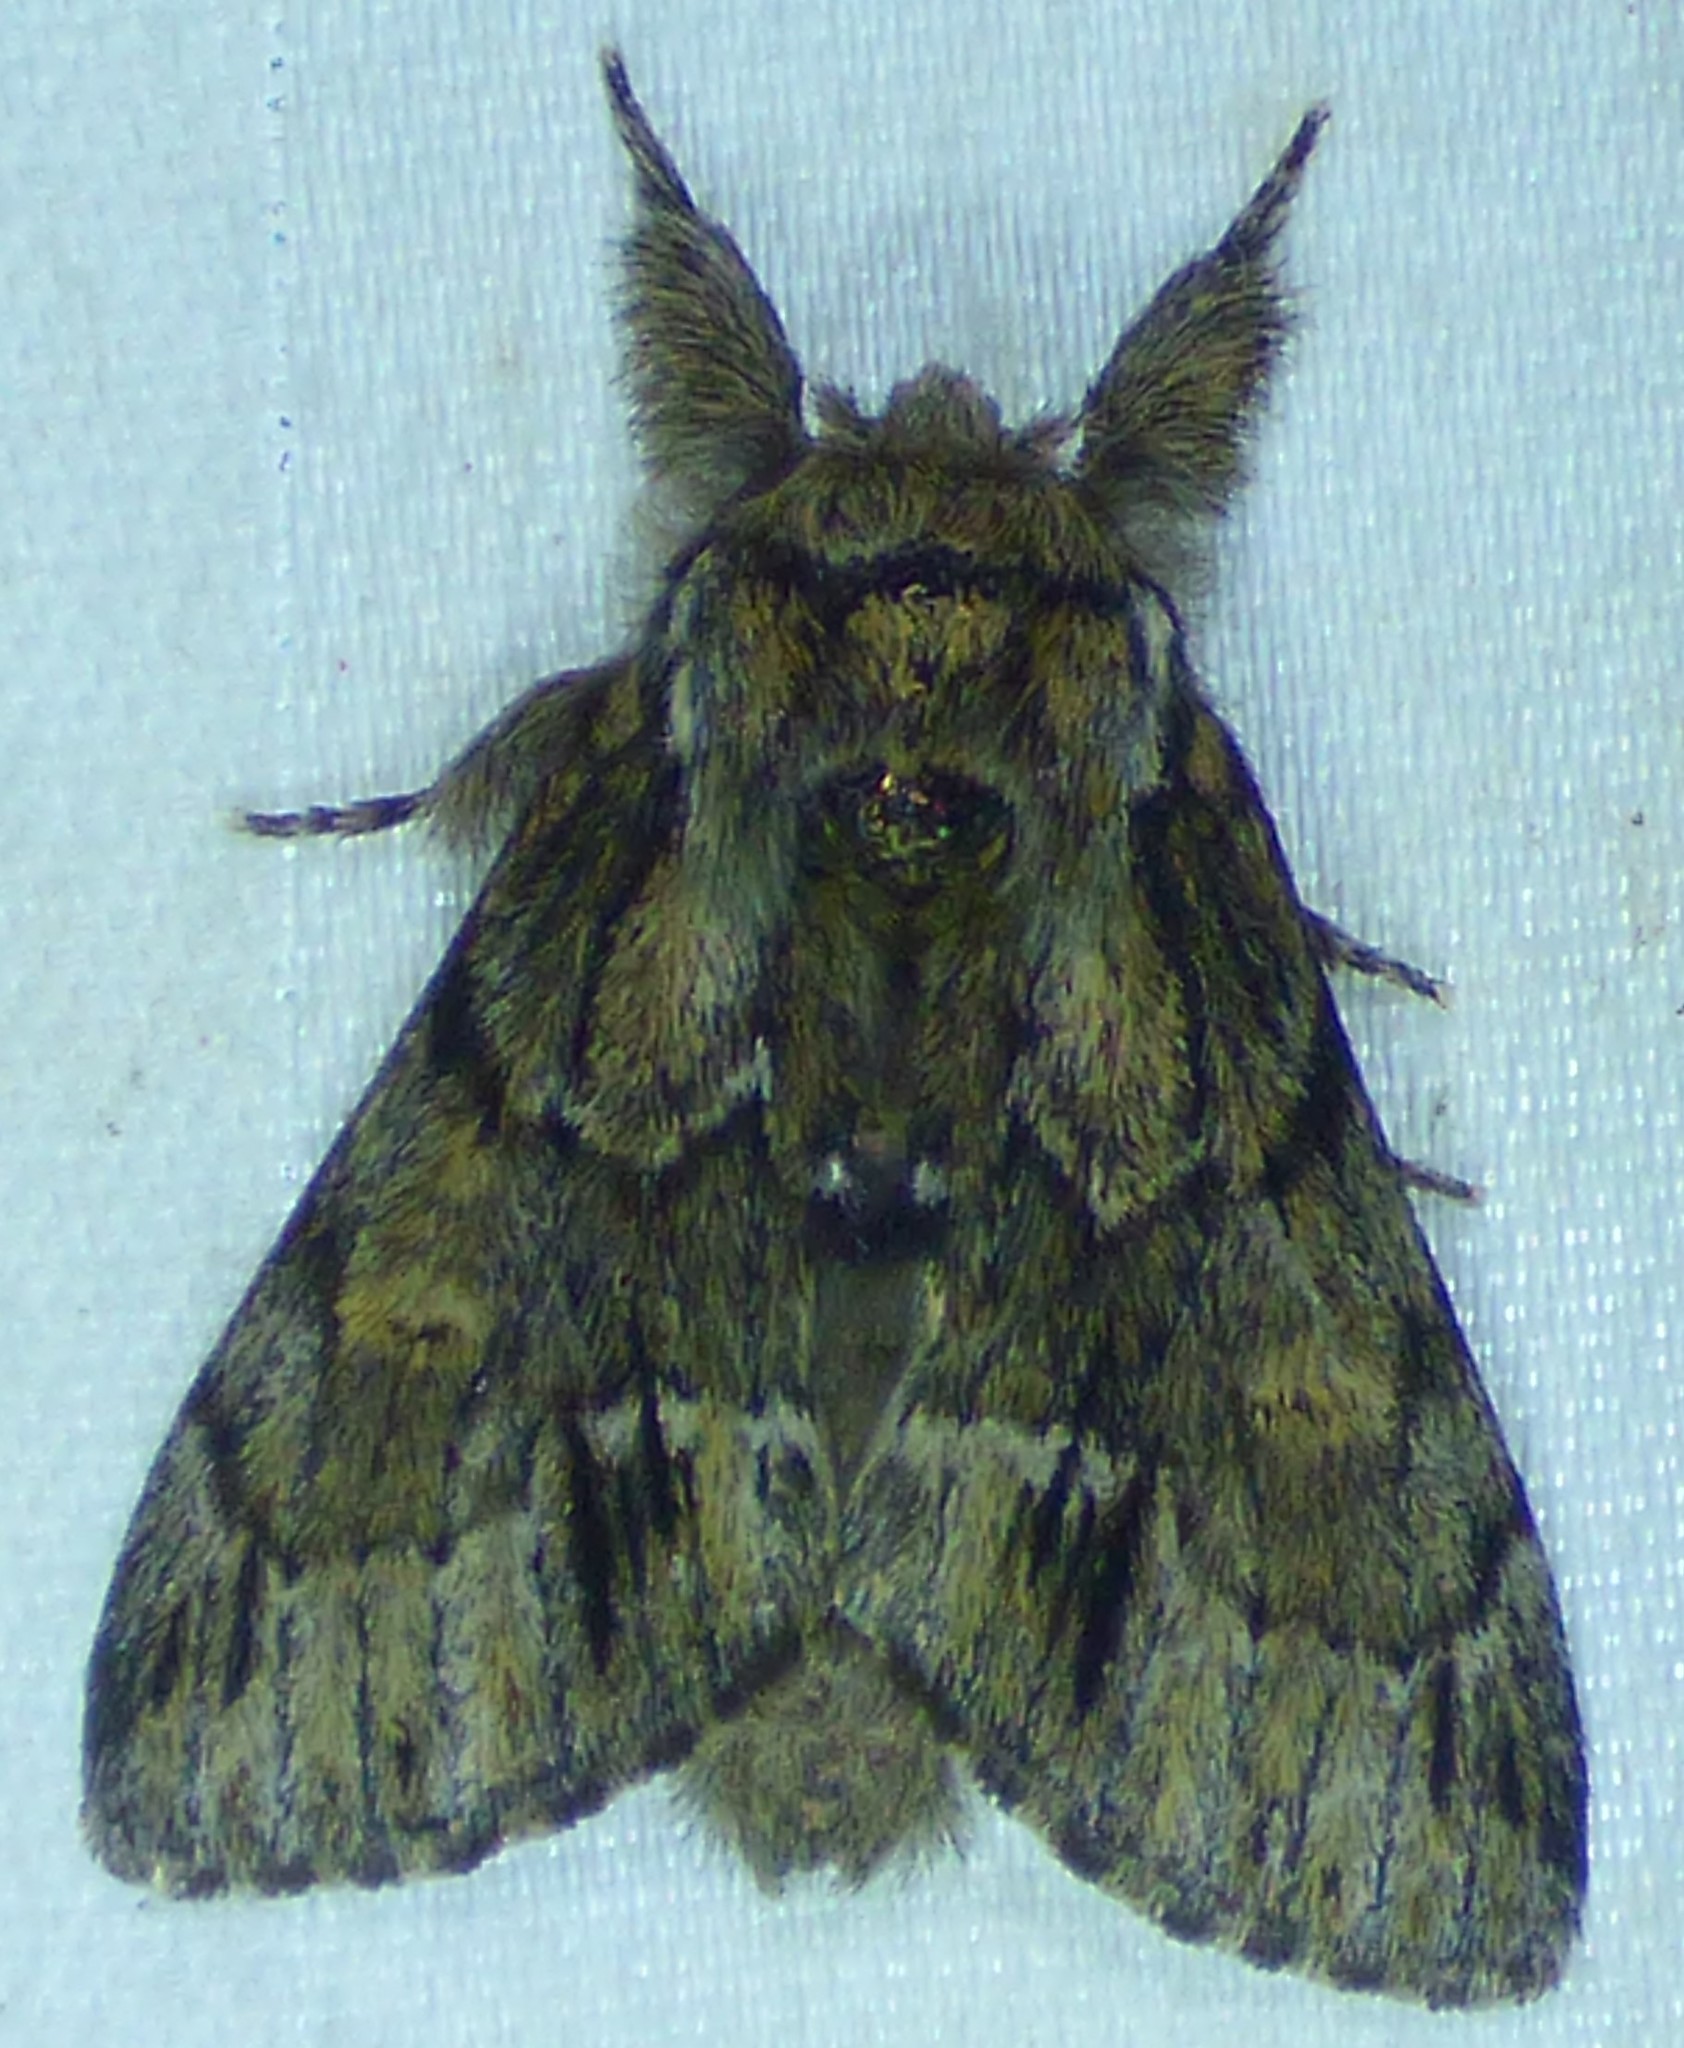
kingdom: Animalia
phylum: Arthropoda
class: Insecta
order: Lepidoptera
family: Notodontidae
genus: Paraeschra
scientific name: Paraeschra georgica
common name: Georgian prominent
